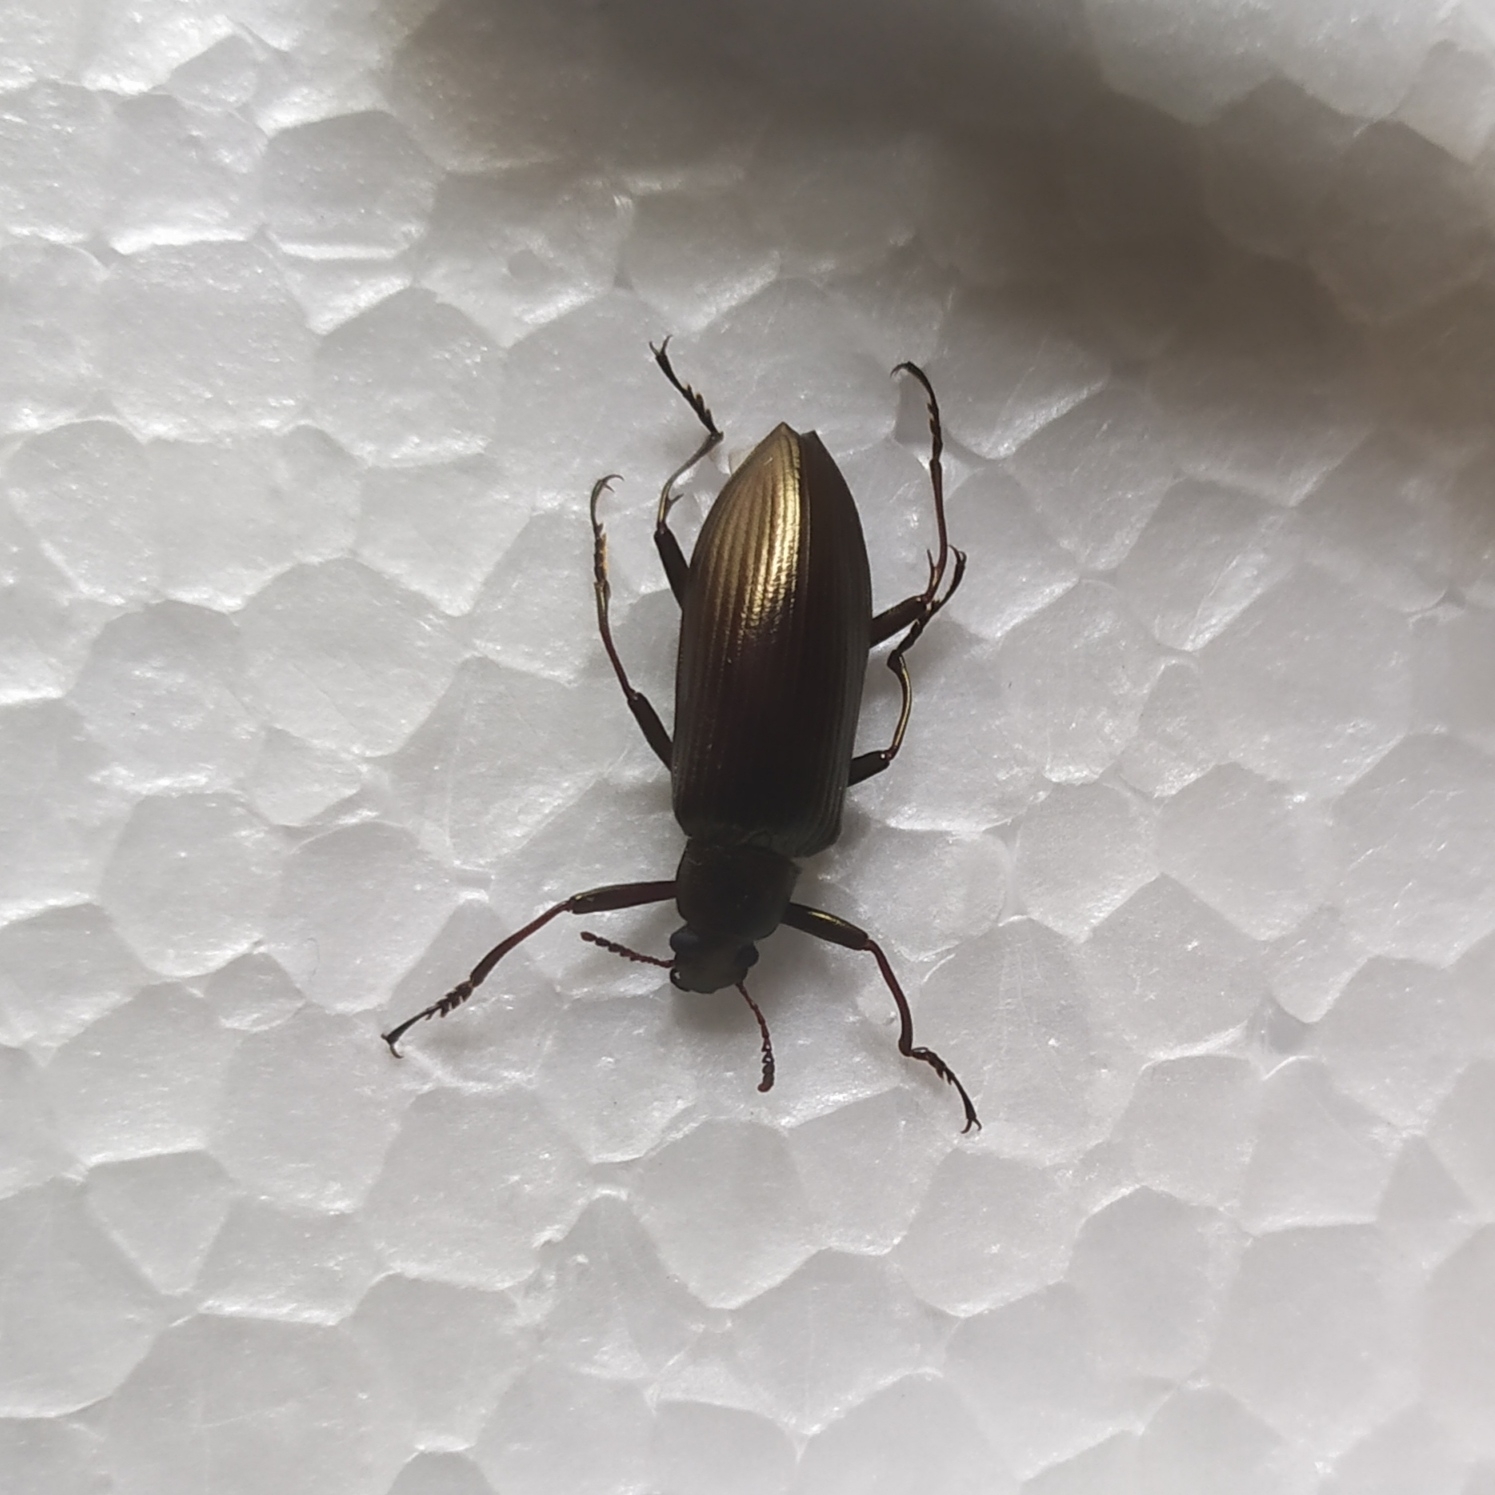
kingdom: Animalia
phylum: Arthropoda
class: Insecta
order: Coleoptera
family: Tenebrionidae
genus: Camaria
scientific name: Camaria
